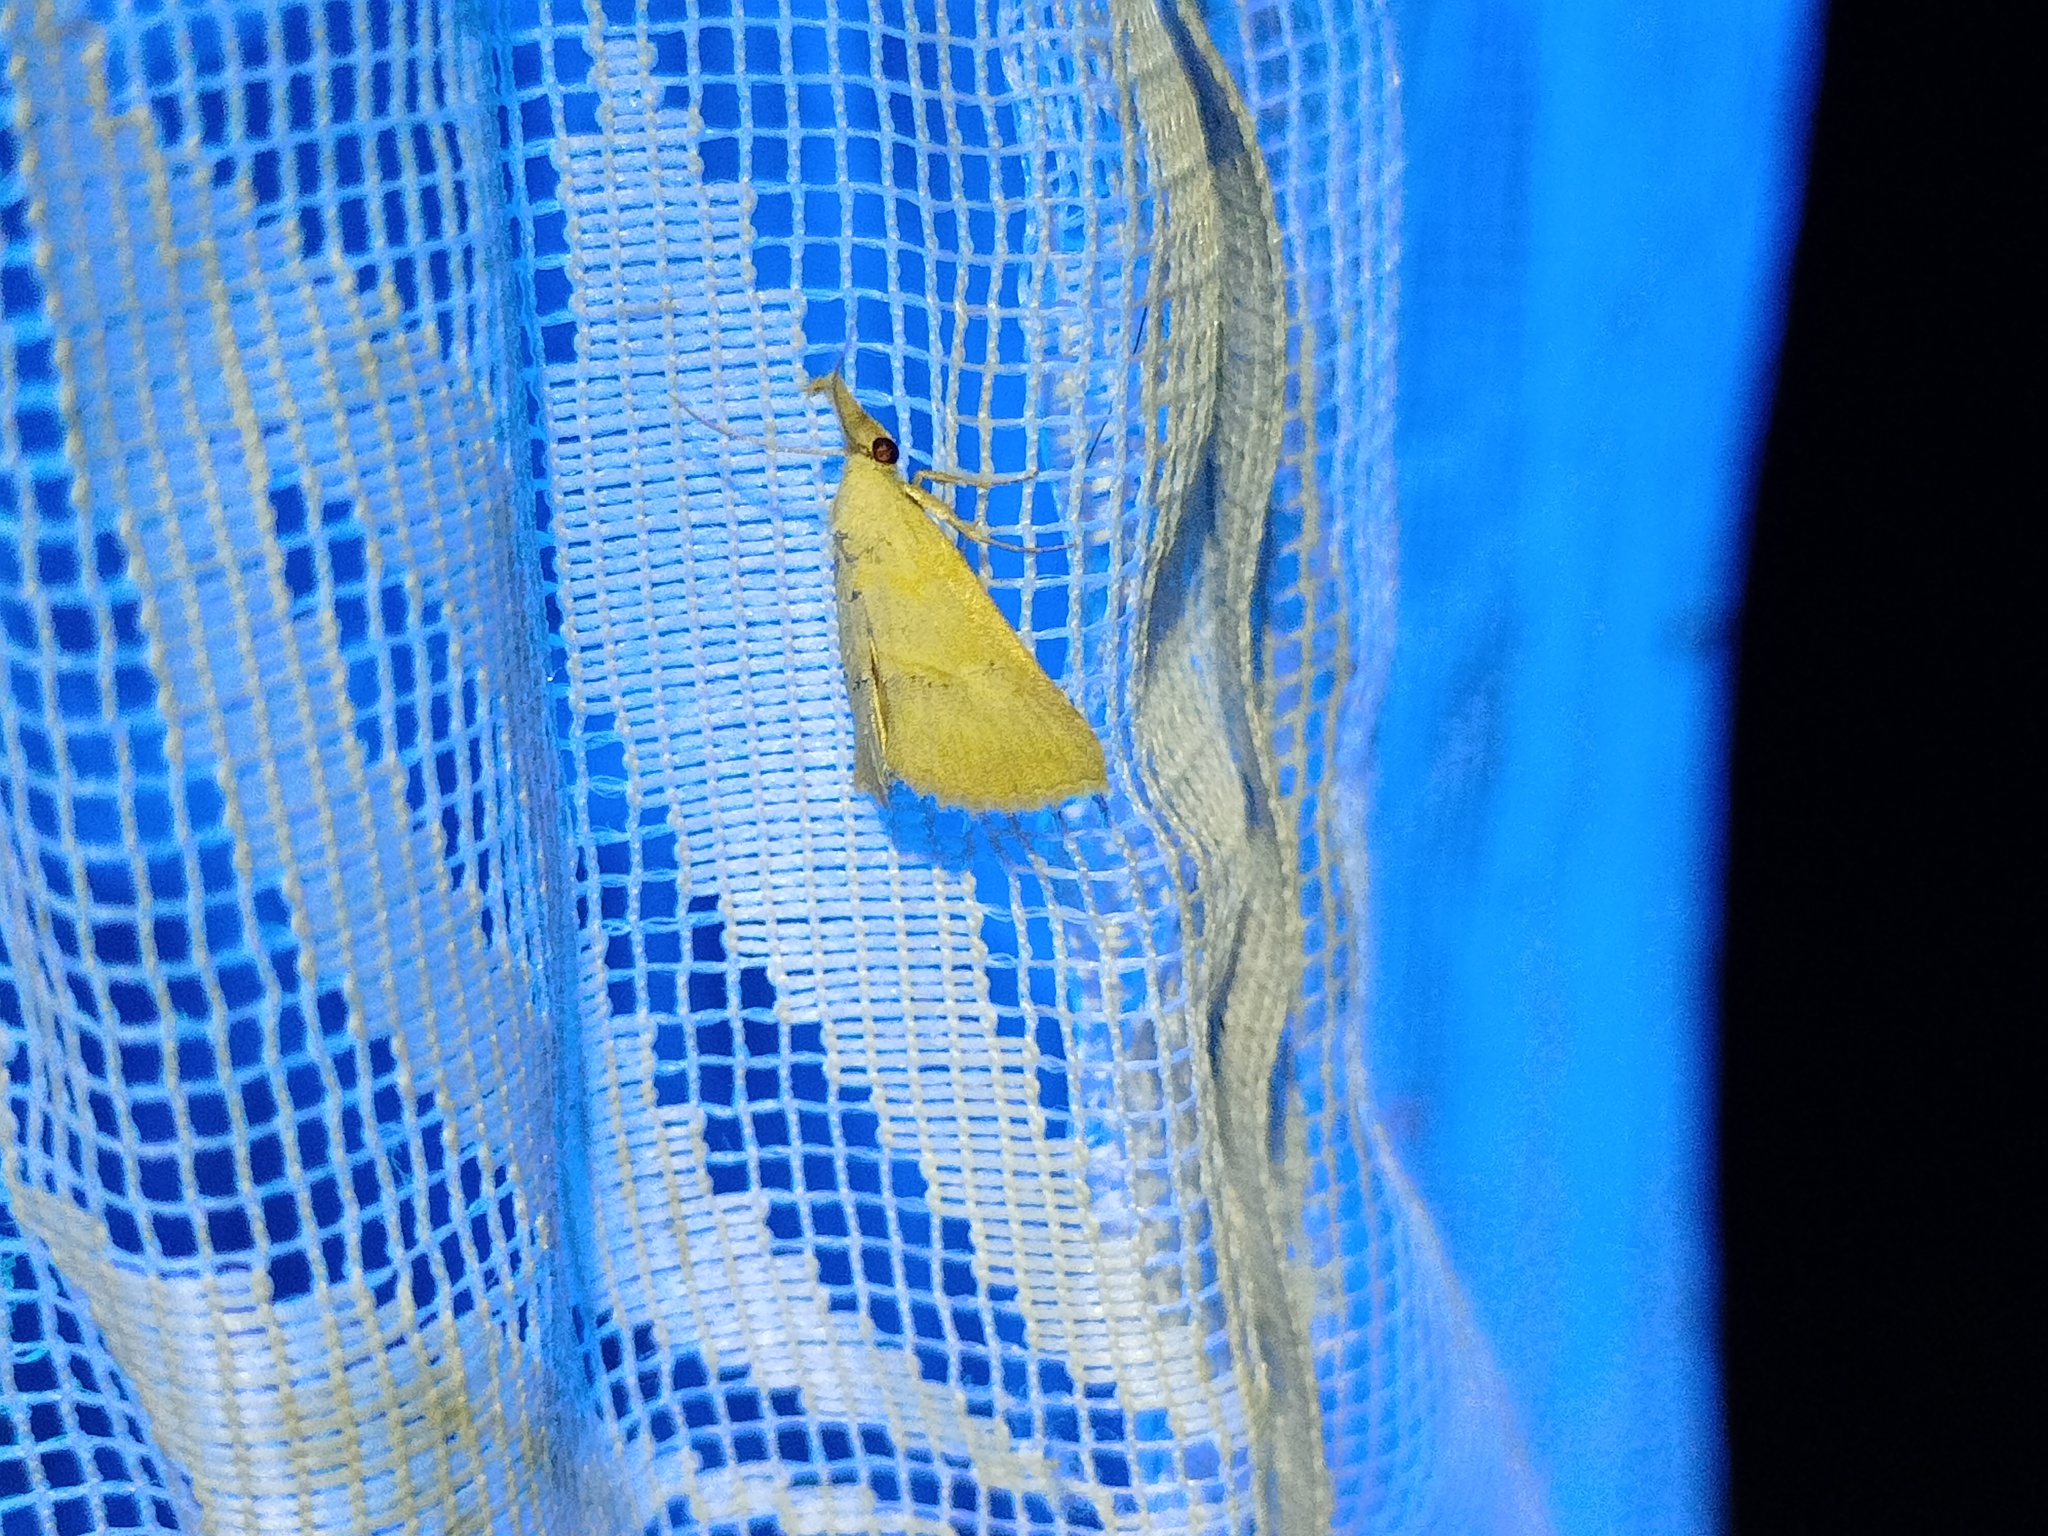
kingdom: Animalia
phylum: Arthropoda
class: Insecta
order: Lepidoptera
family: Erebidae
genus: Zekelita
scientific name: Zekelita ravalis
